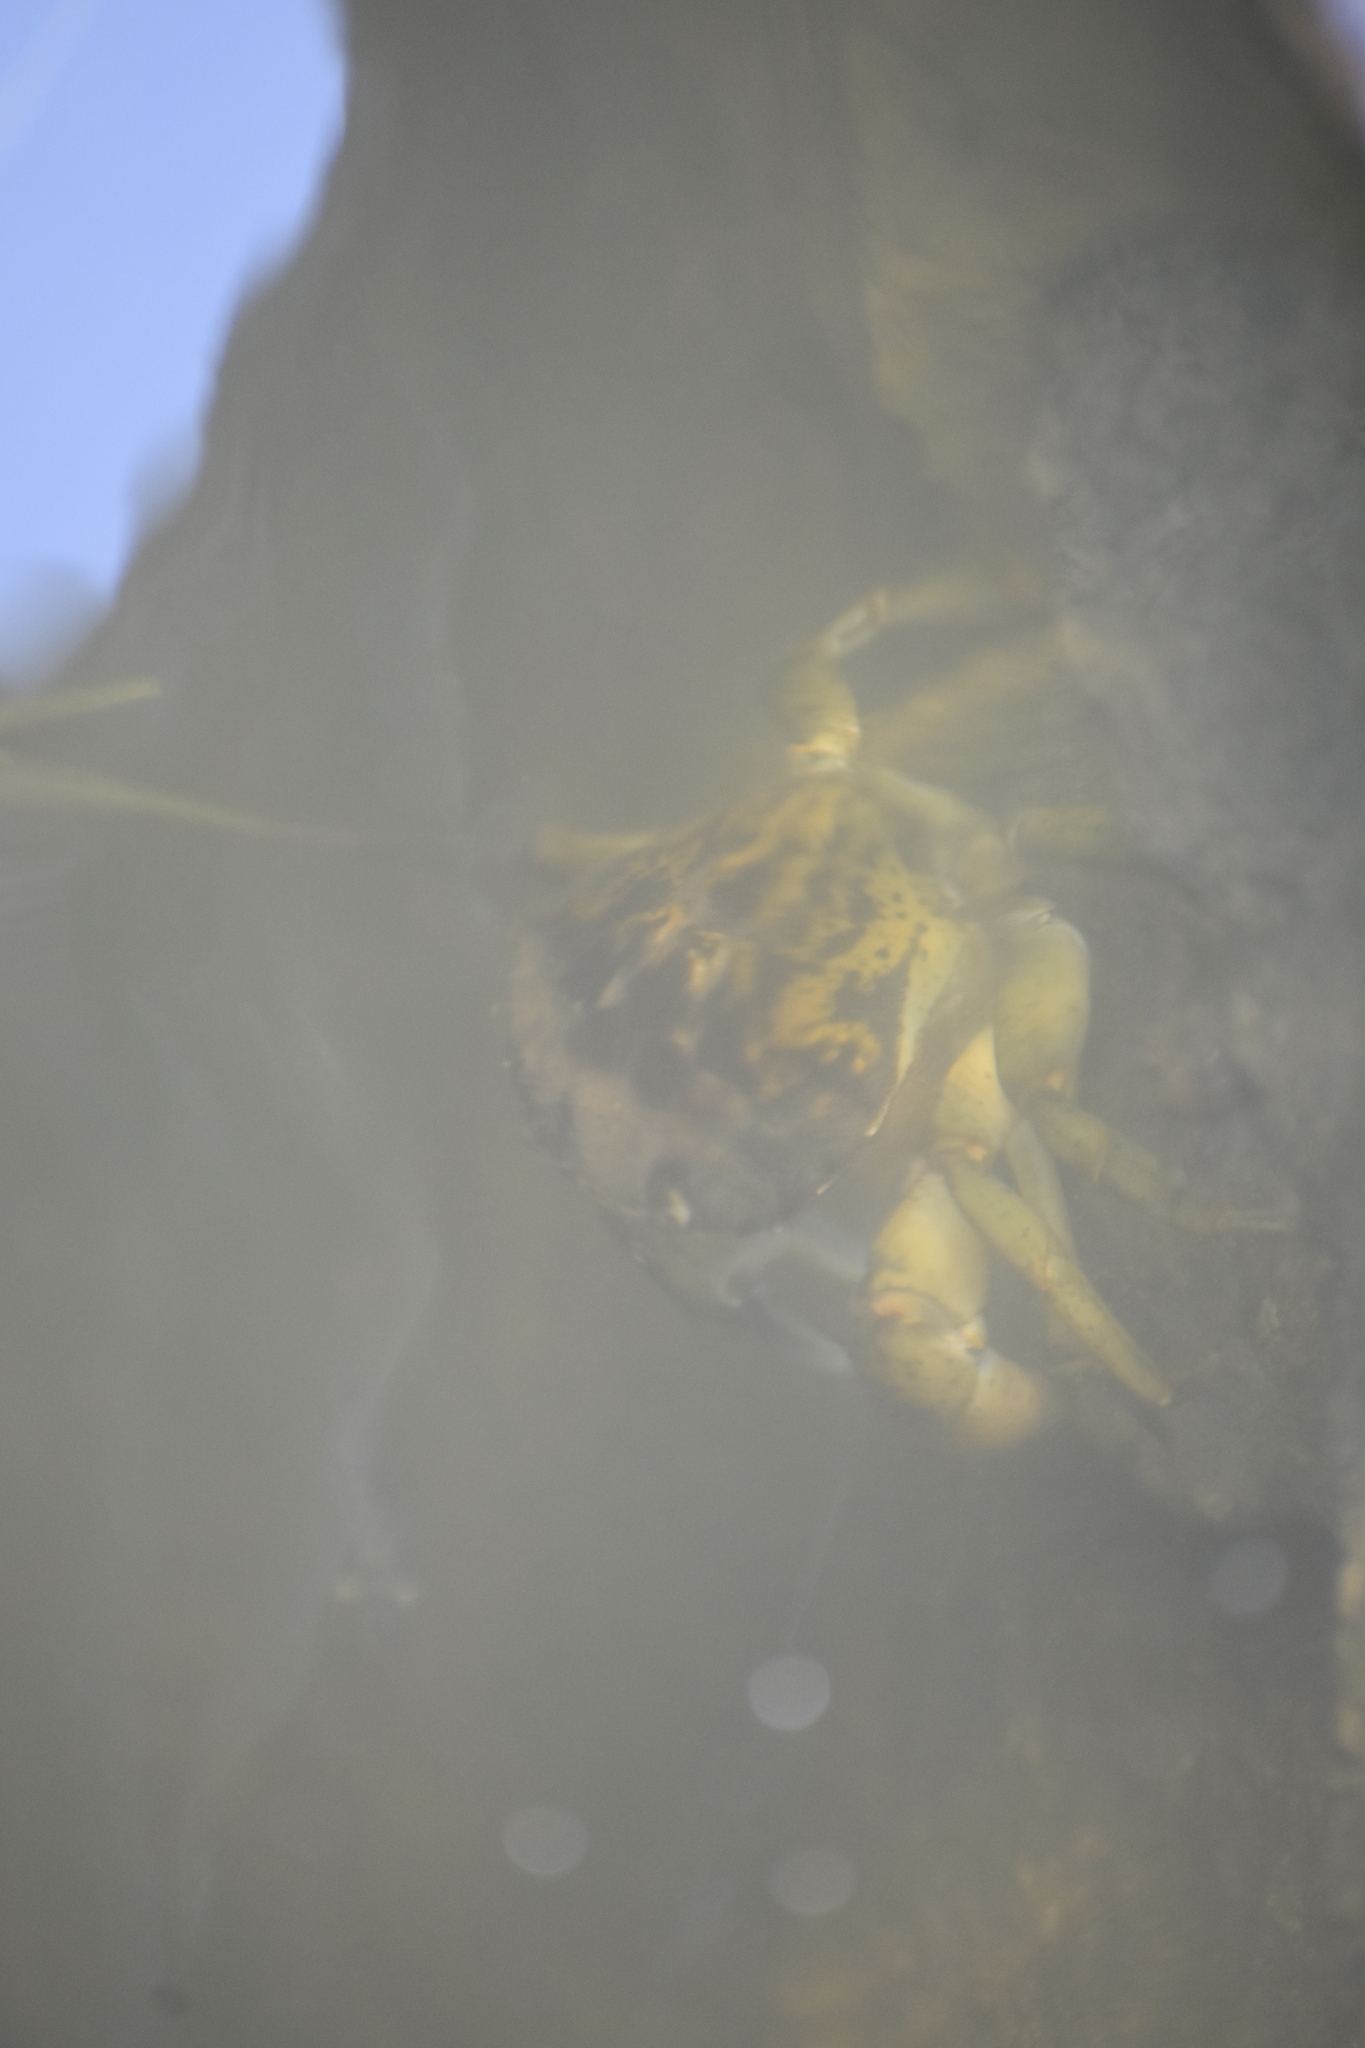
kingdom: Animalia
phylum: Arthropoda
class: Malacostraca
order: Decapoda
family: Carcinidae
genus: Carcinus
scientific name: Carcinus maenas
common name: European green crab
